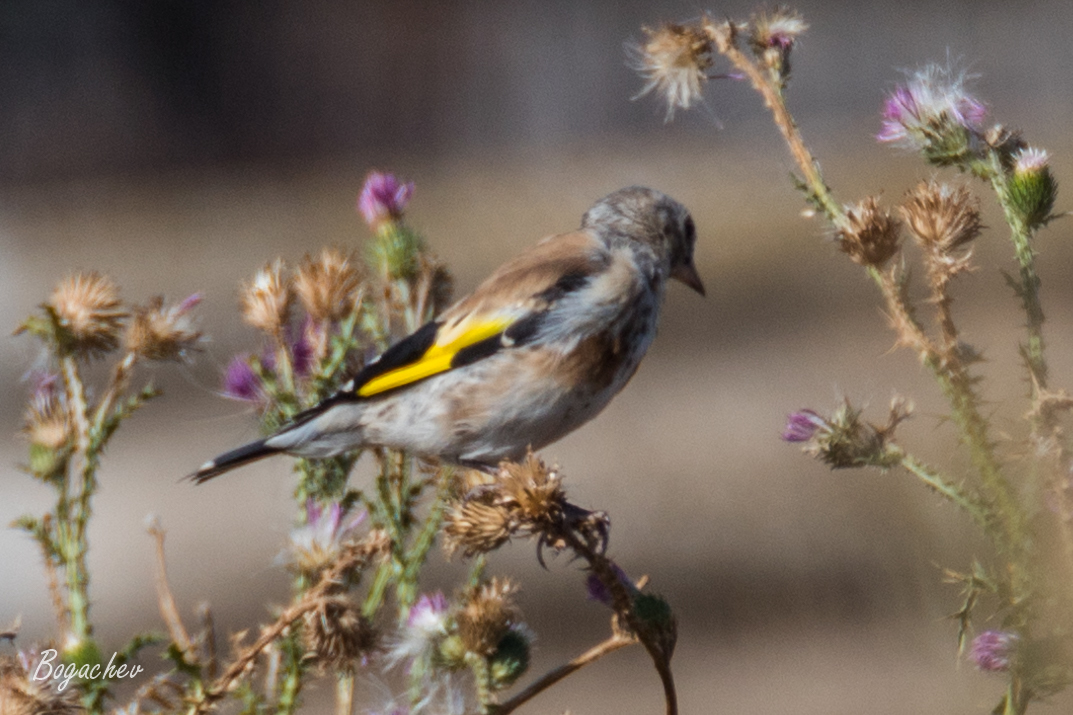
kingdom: Animalia
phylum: Chordata
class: Aves
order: Passeriformes
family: Fringillidae
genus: Carduelis
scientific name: Carduelis carduelis
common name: European goldfinch
